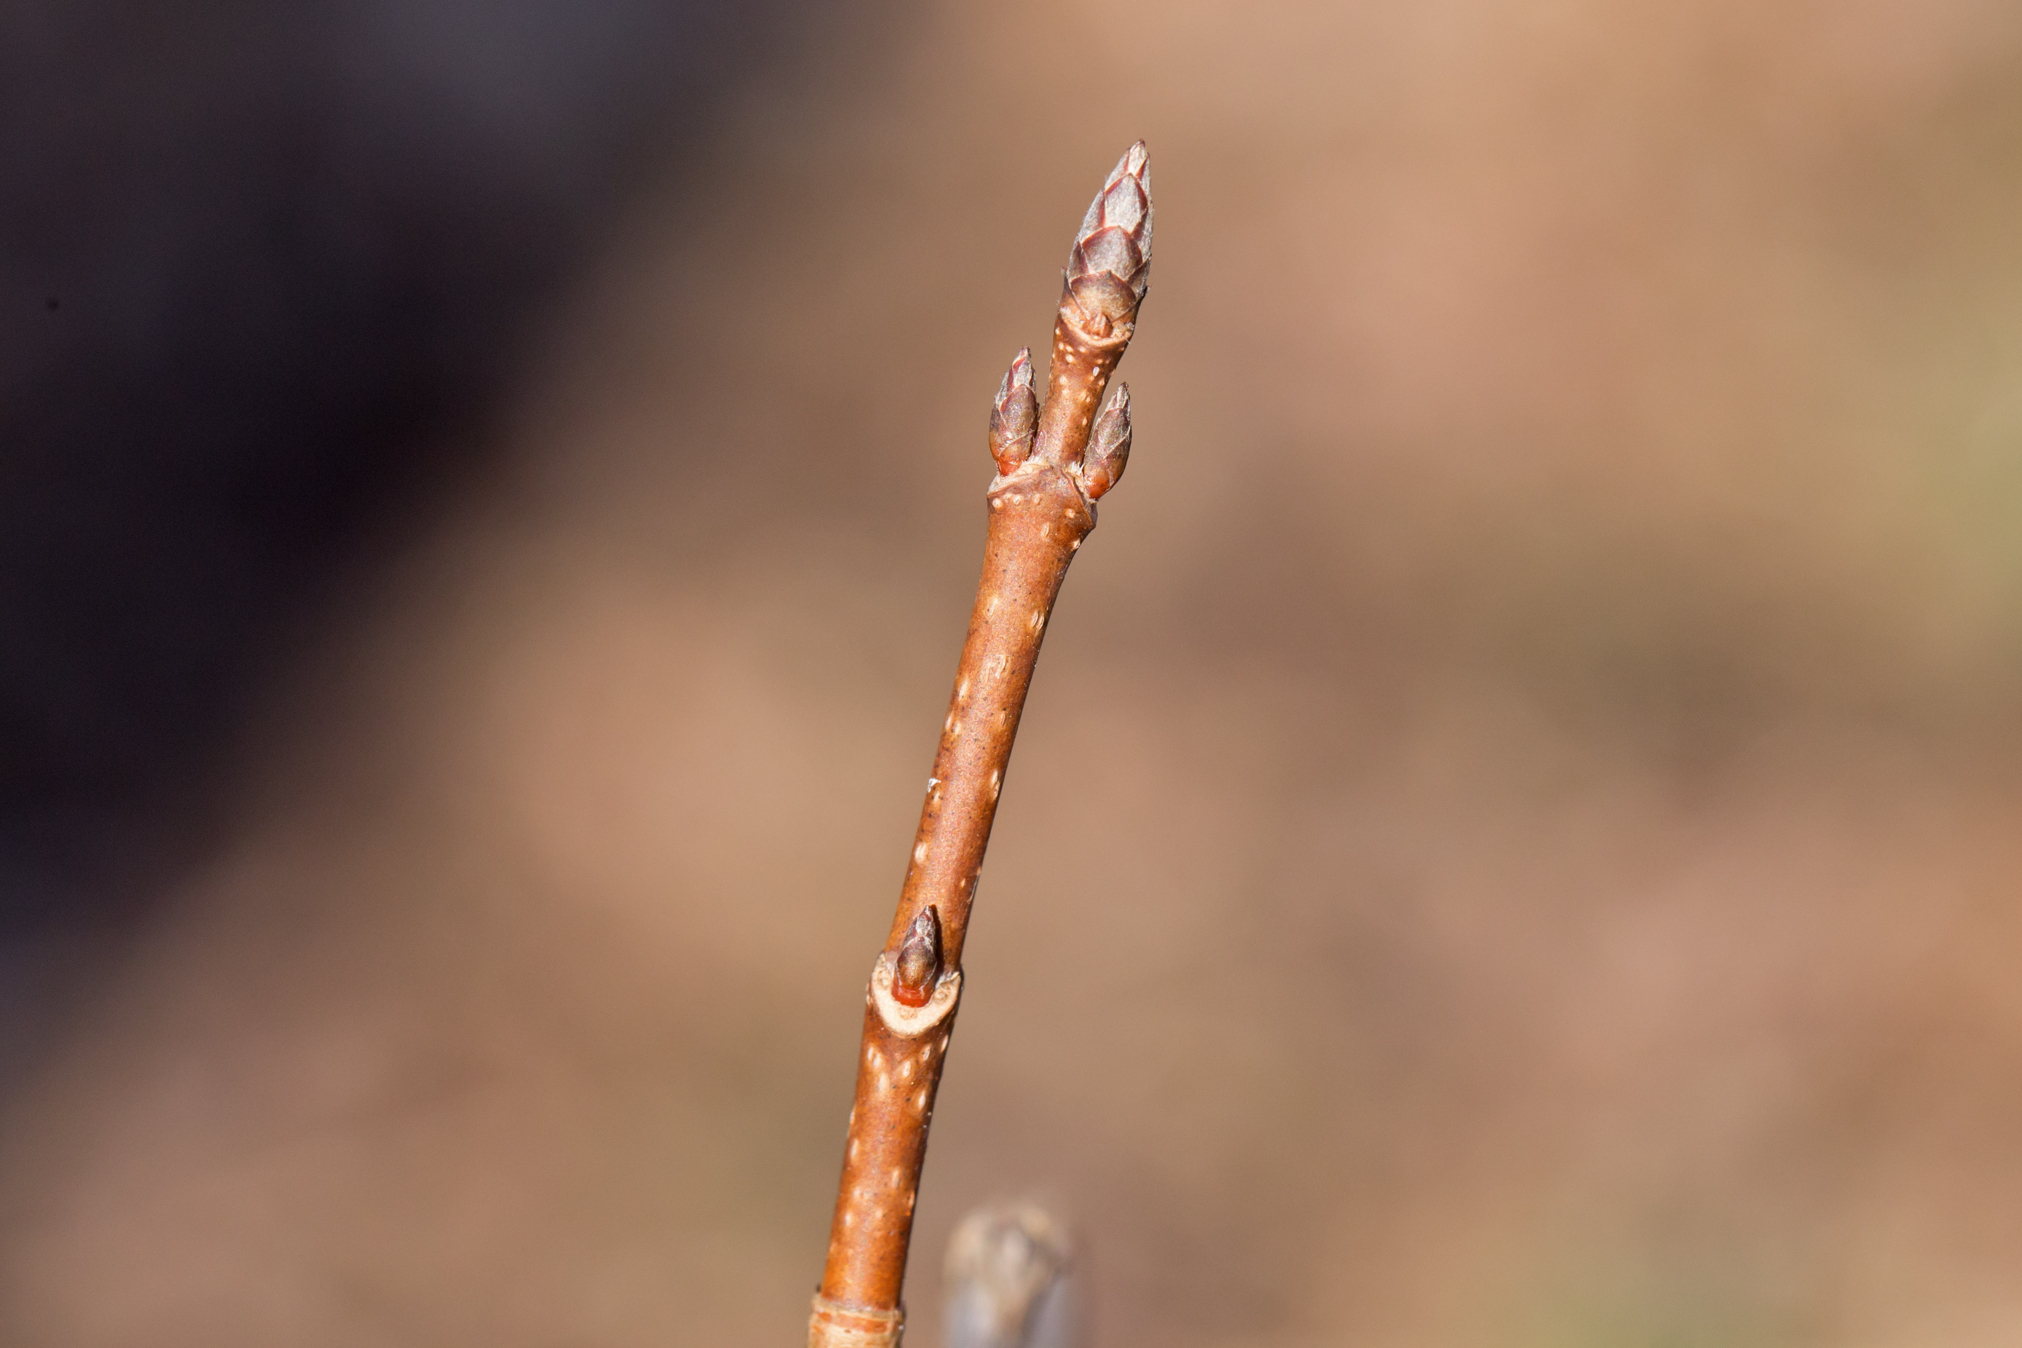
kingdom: Plantae
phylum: Tracheophyta
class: Magnoliopsida
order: Sapindales
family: Sapindaceae
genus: Acer
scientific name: Acer saccharum
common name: Sugar maple
